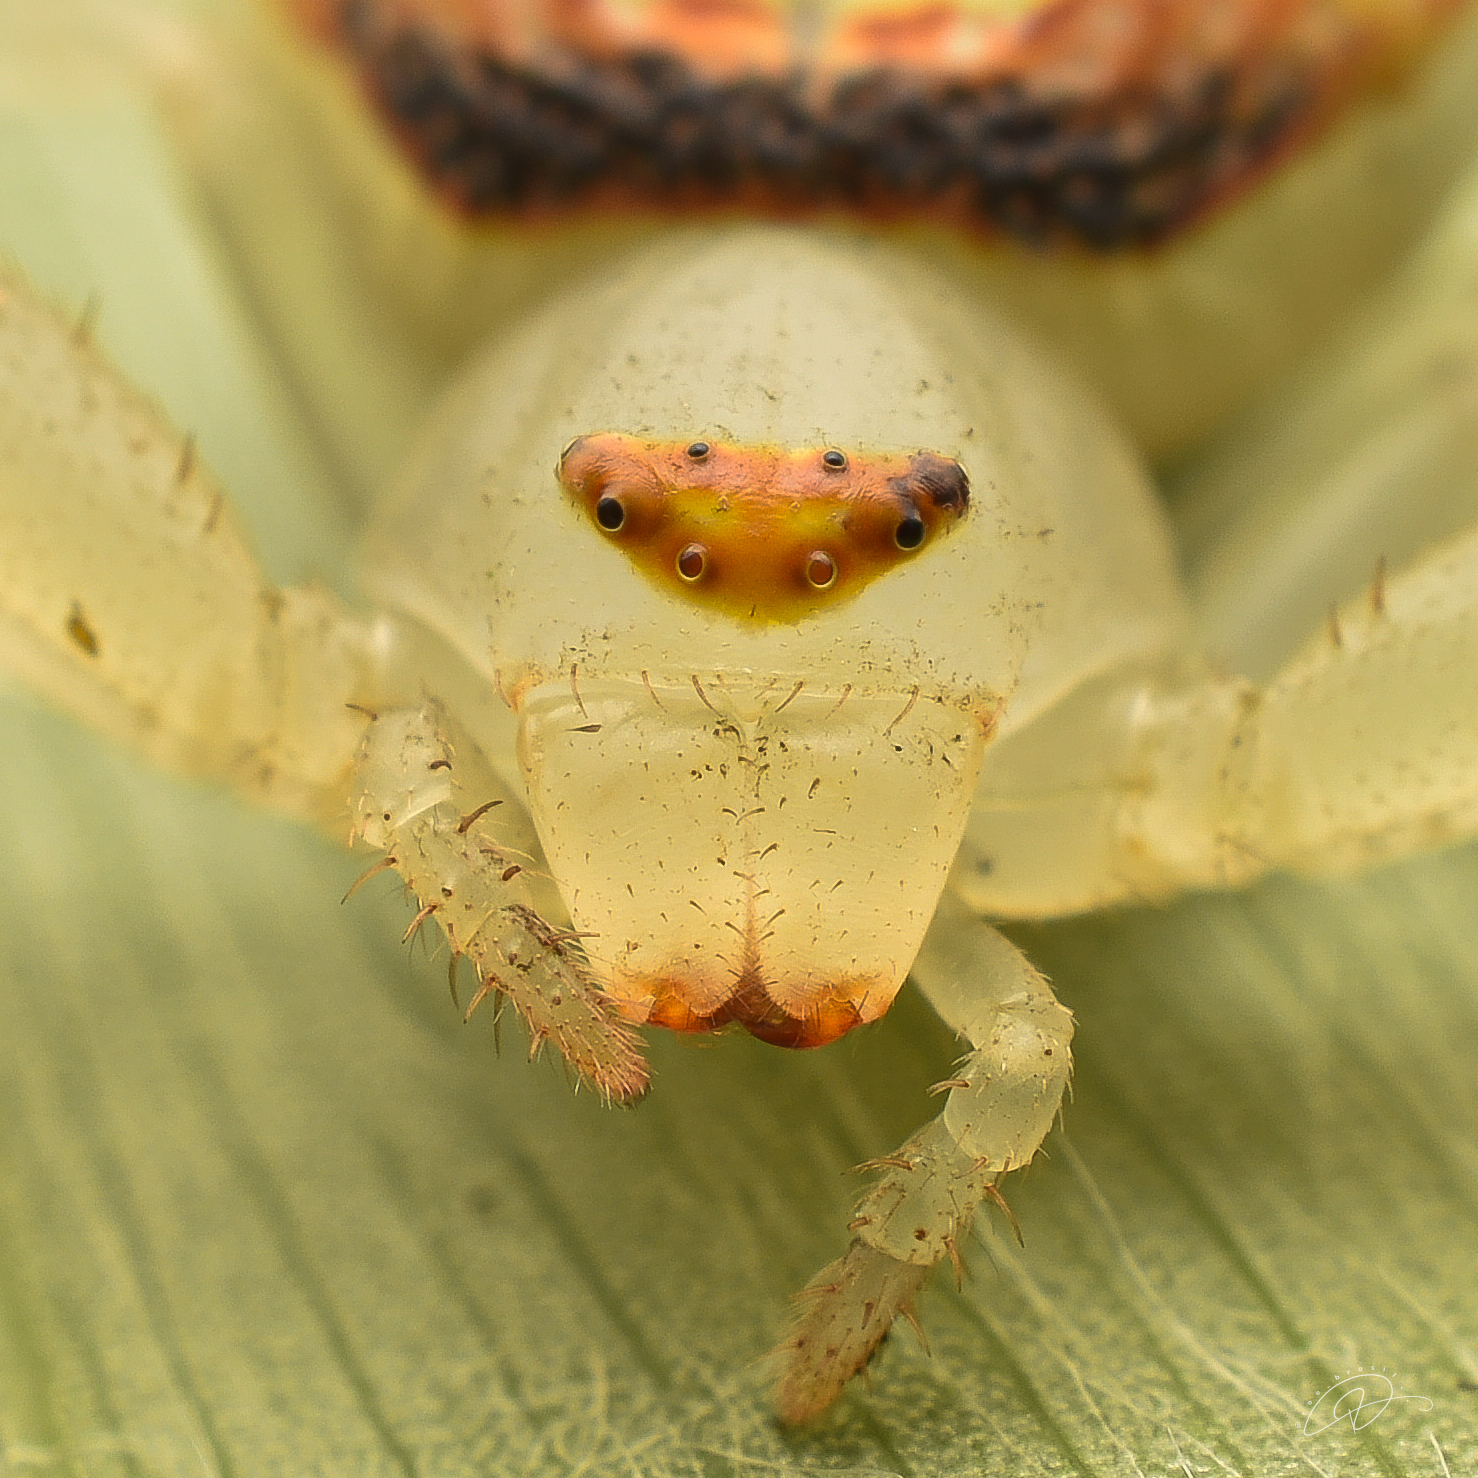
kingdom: Animalia
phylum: Arthropoda
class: Arachnida
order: Araneae
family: Thomisidae
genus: Misumenops
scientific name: Misumenops callinurus
